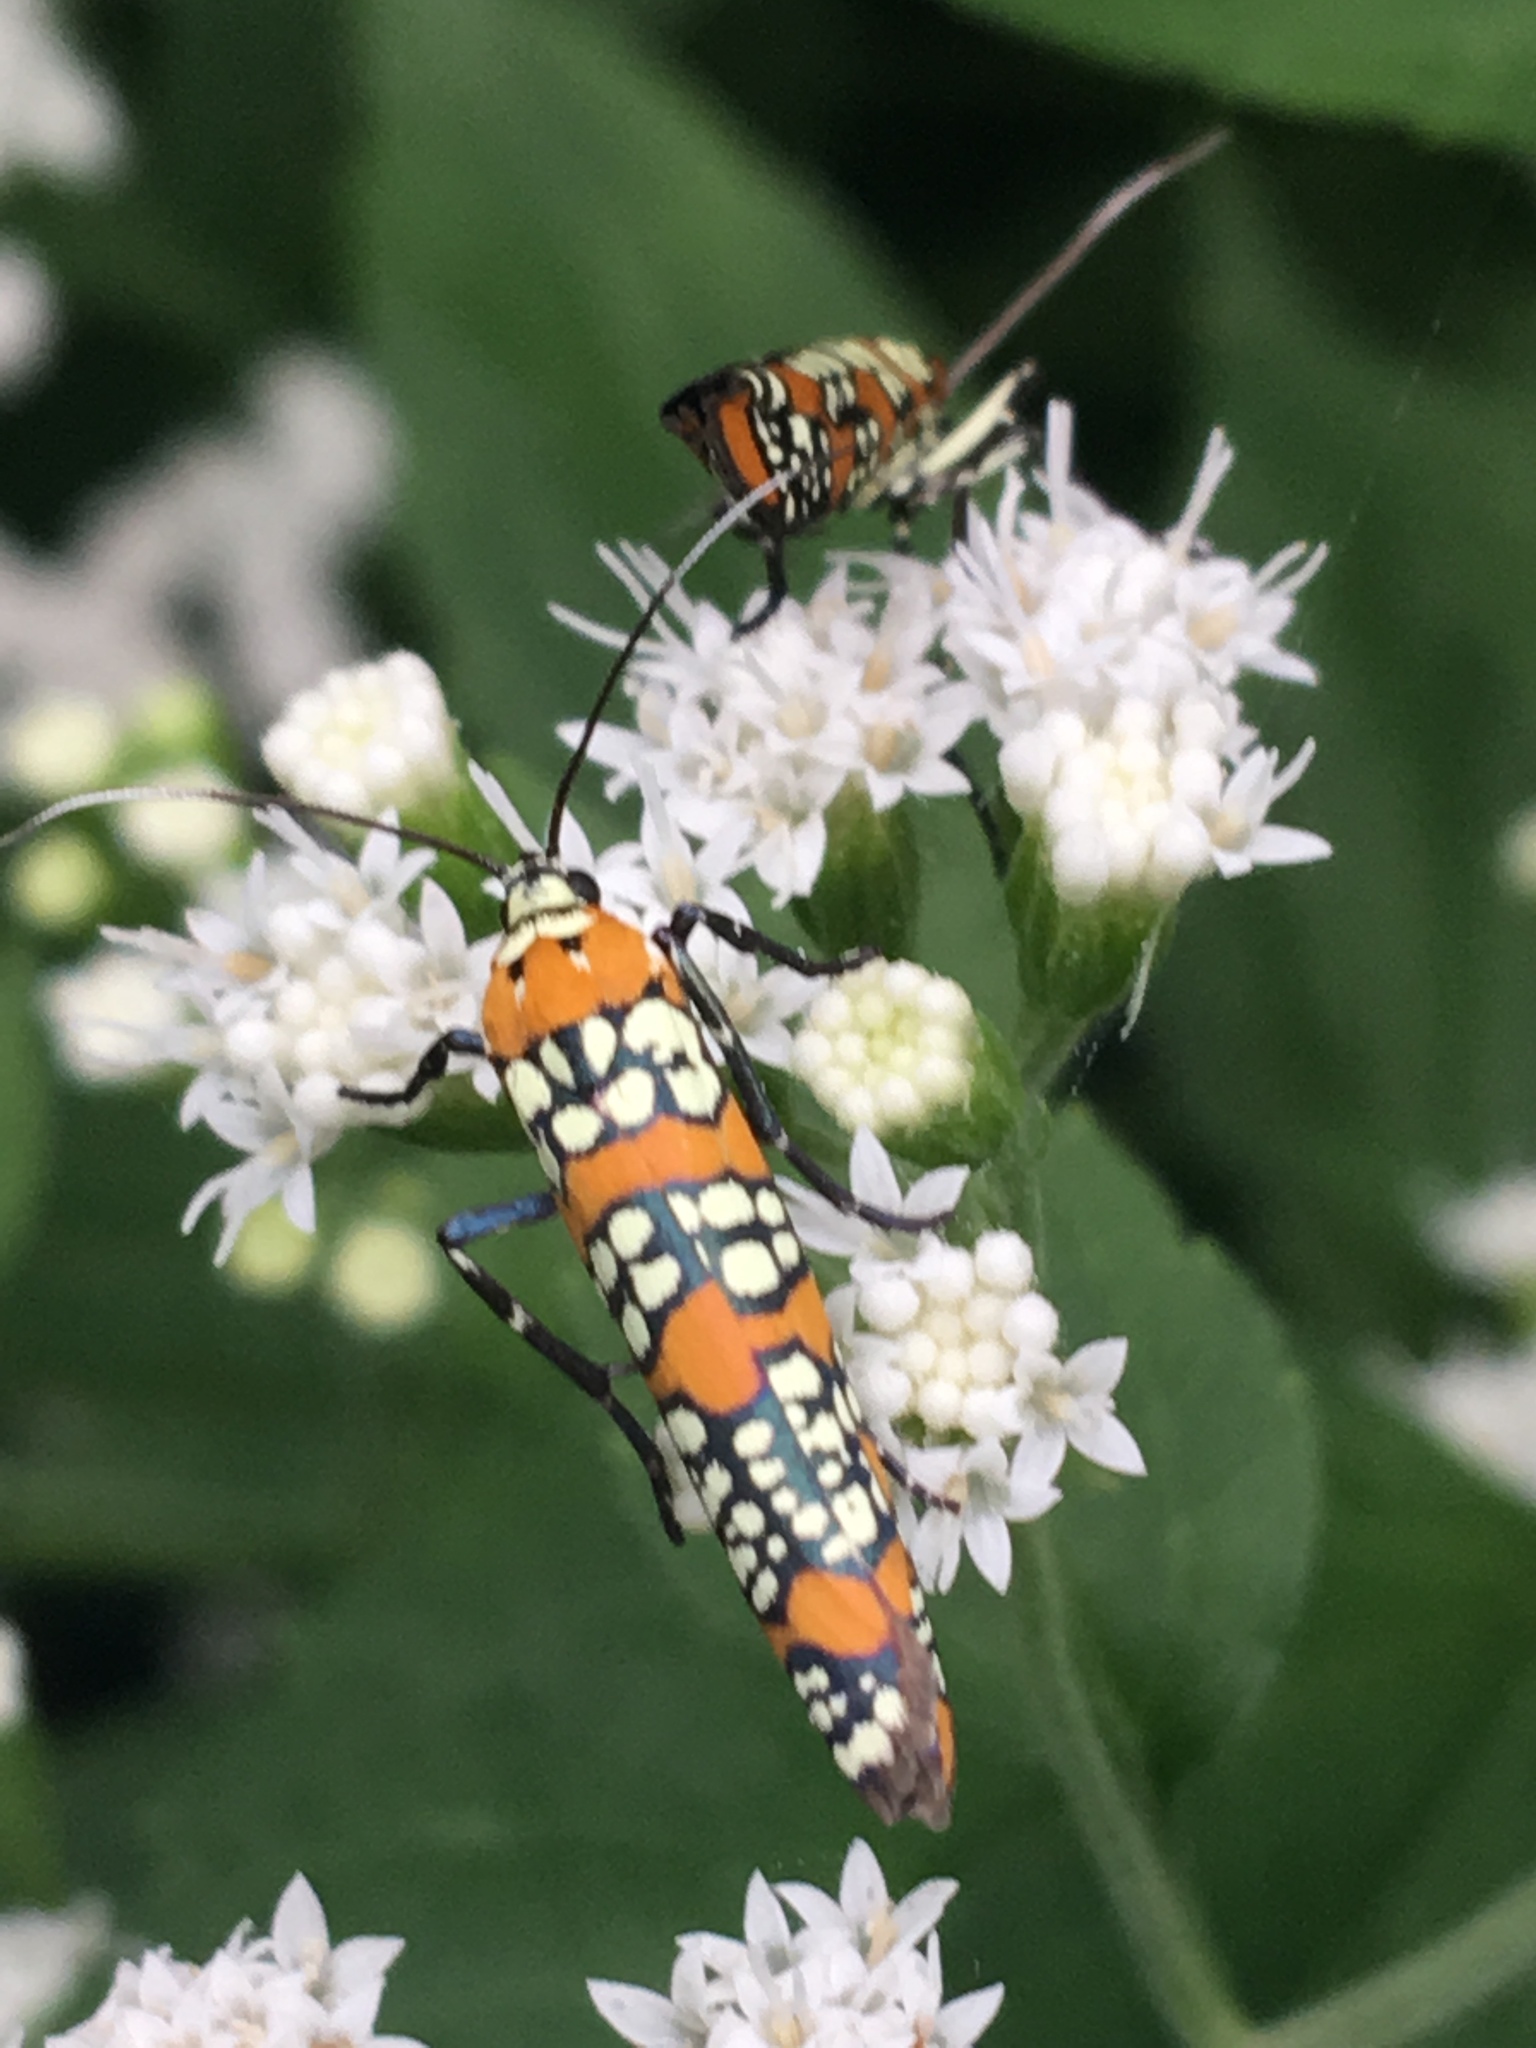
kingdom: Animalia
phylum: Arthropoda
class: Insecta
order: Lepidoptera
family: Attevidae
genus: Atteva
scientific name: Atteva punctella
